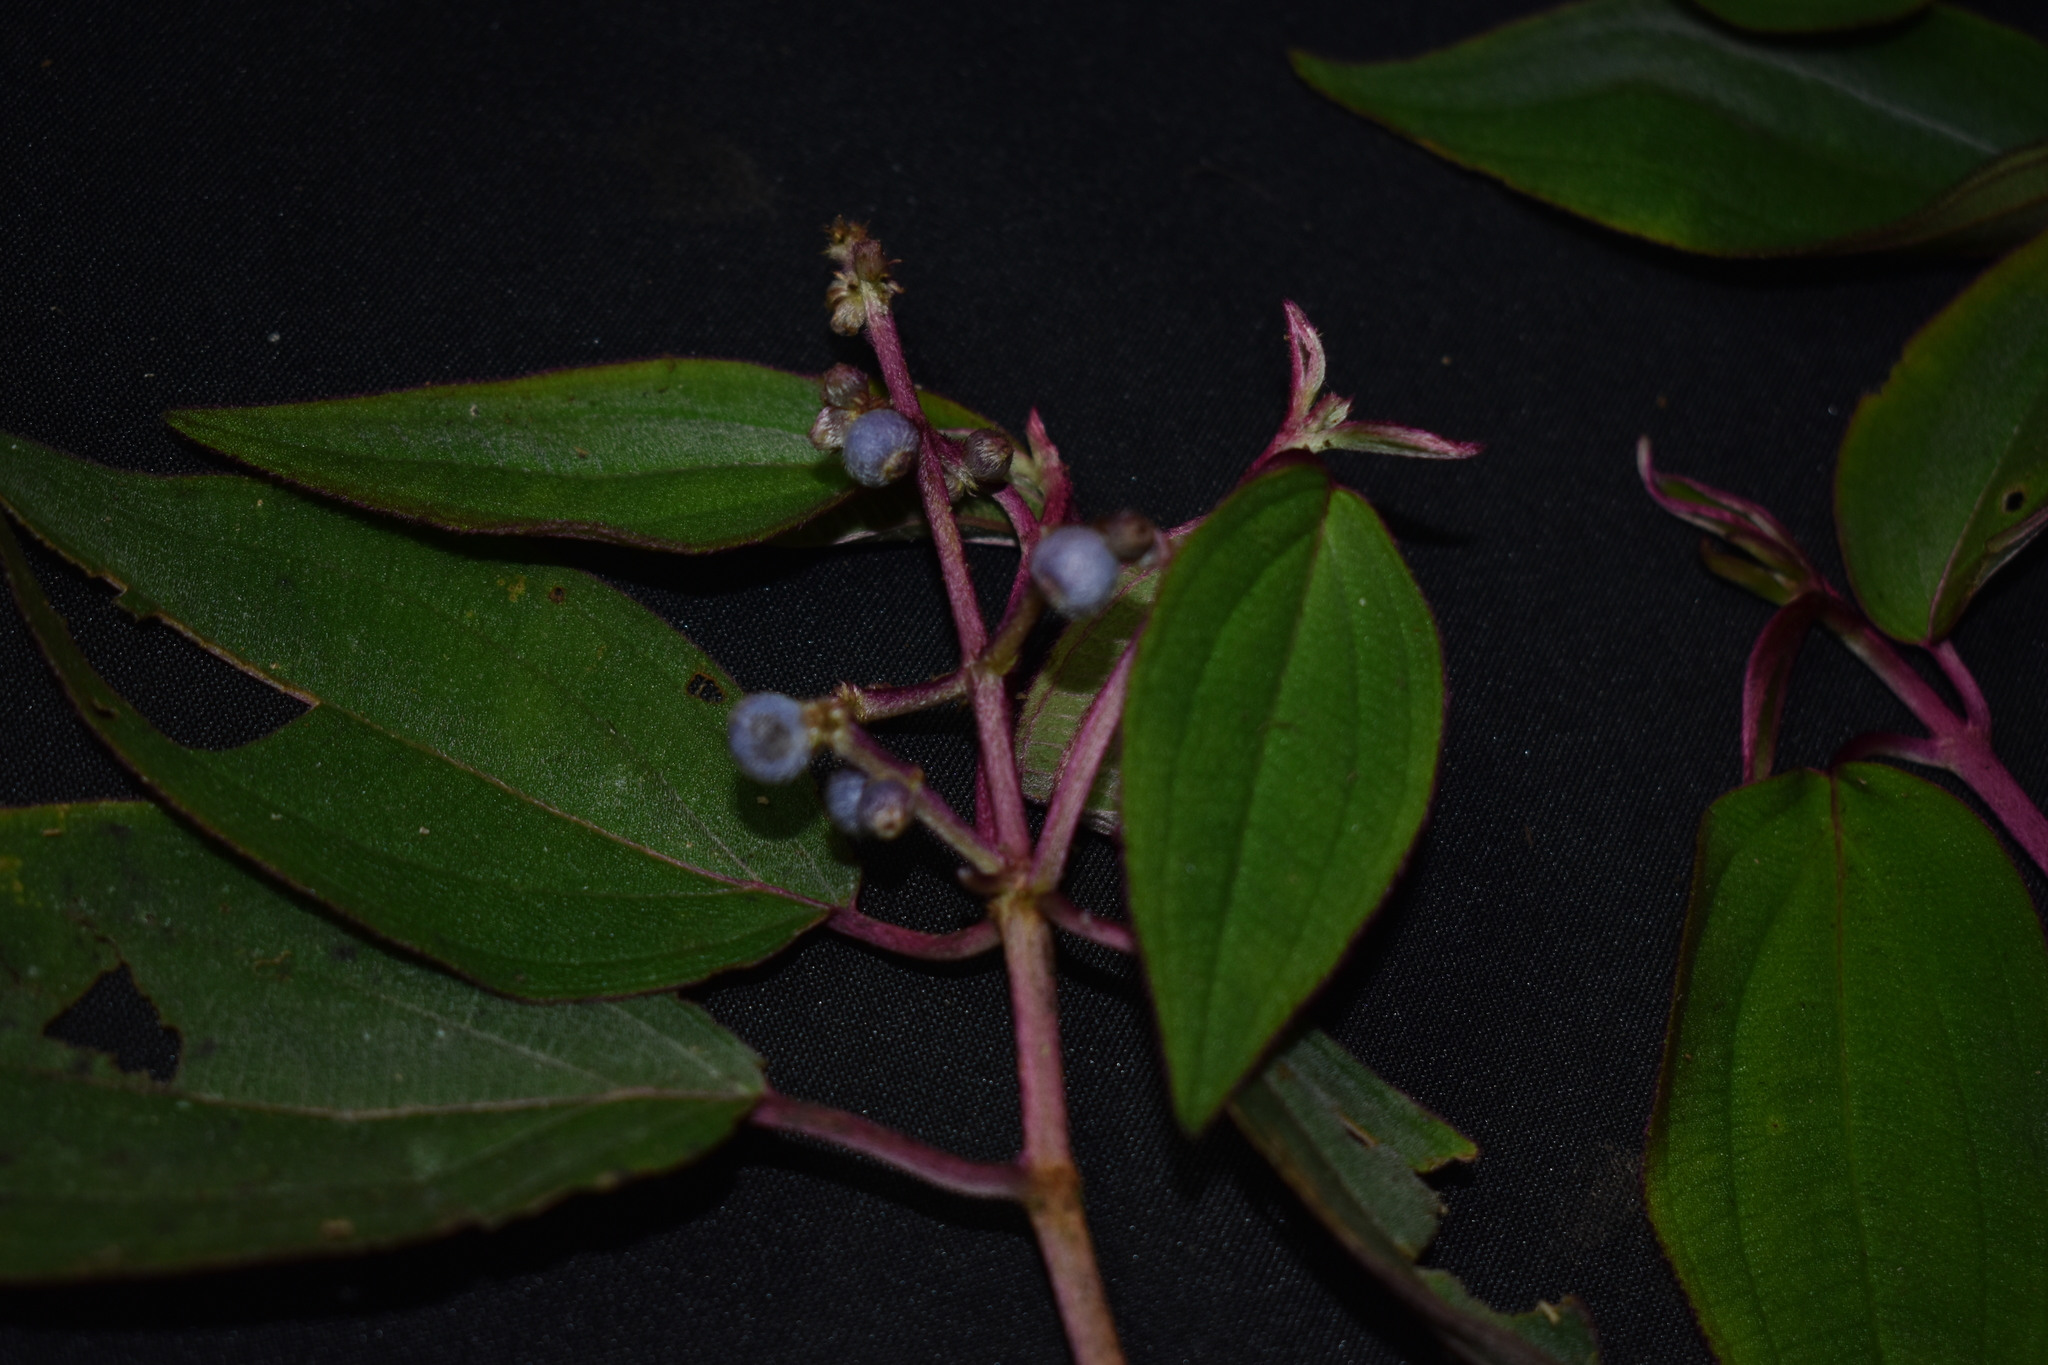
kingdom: Plantae
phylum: Tracheophyta
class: Magnoliopsida
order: Myrtales
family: Melastomataceae
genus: Miconia
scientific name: Miconia polytopica
